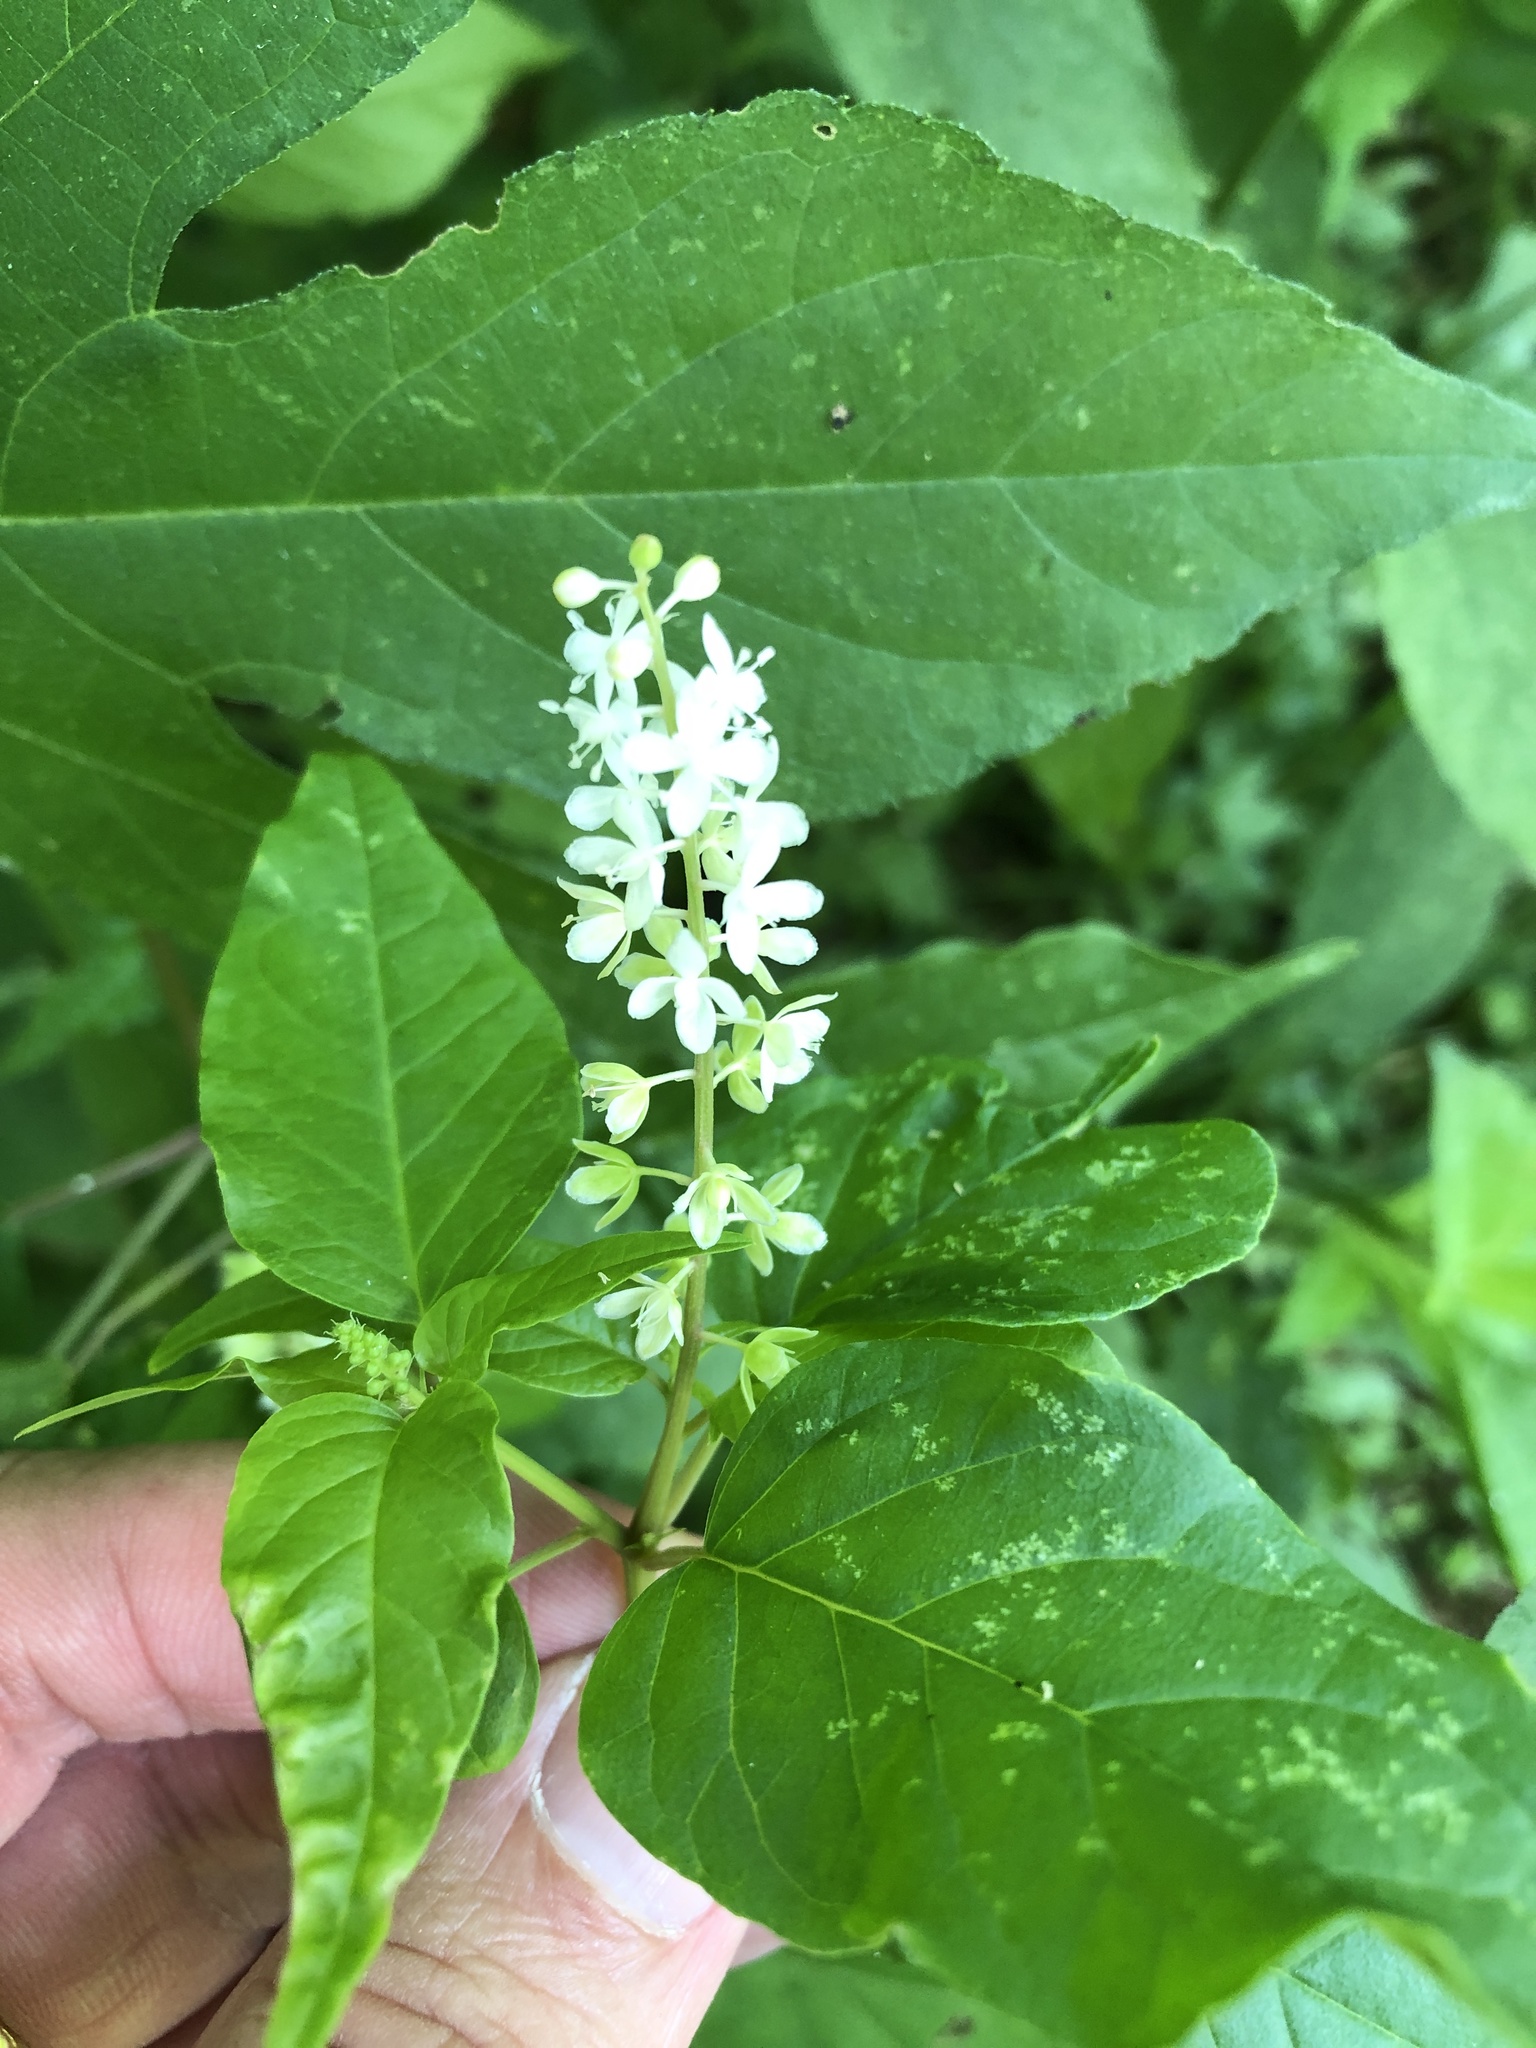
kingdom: Plantae
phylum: Tracheophyta
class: Magnoliopsida
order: Caryophyllales
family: Phytolaccaceae
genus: Rivina
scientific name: Rivina humilis
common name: Rougeplant
